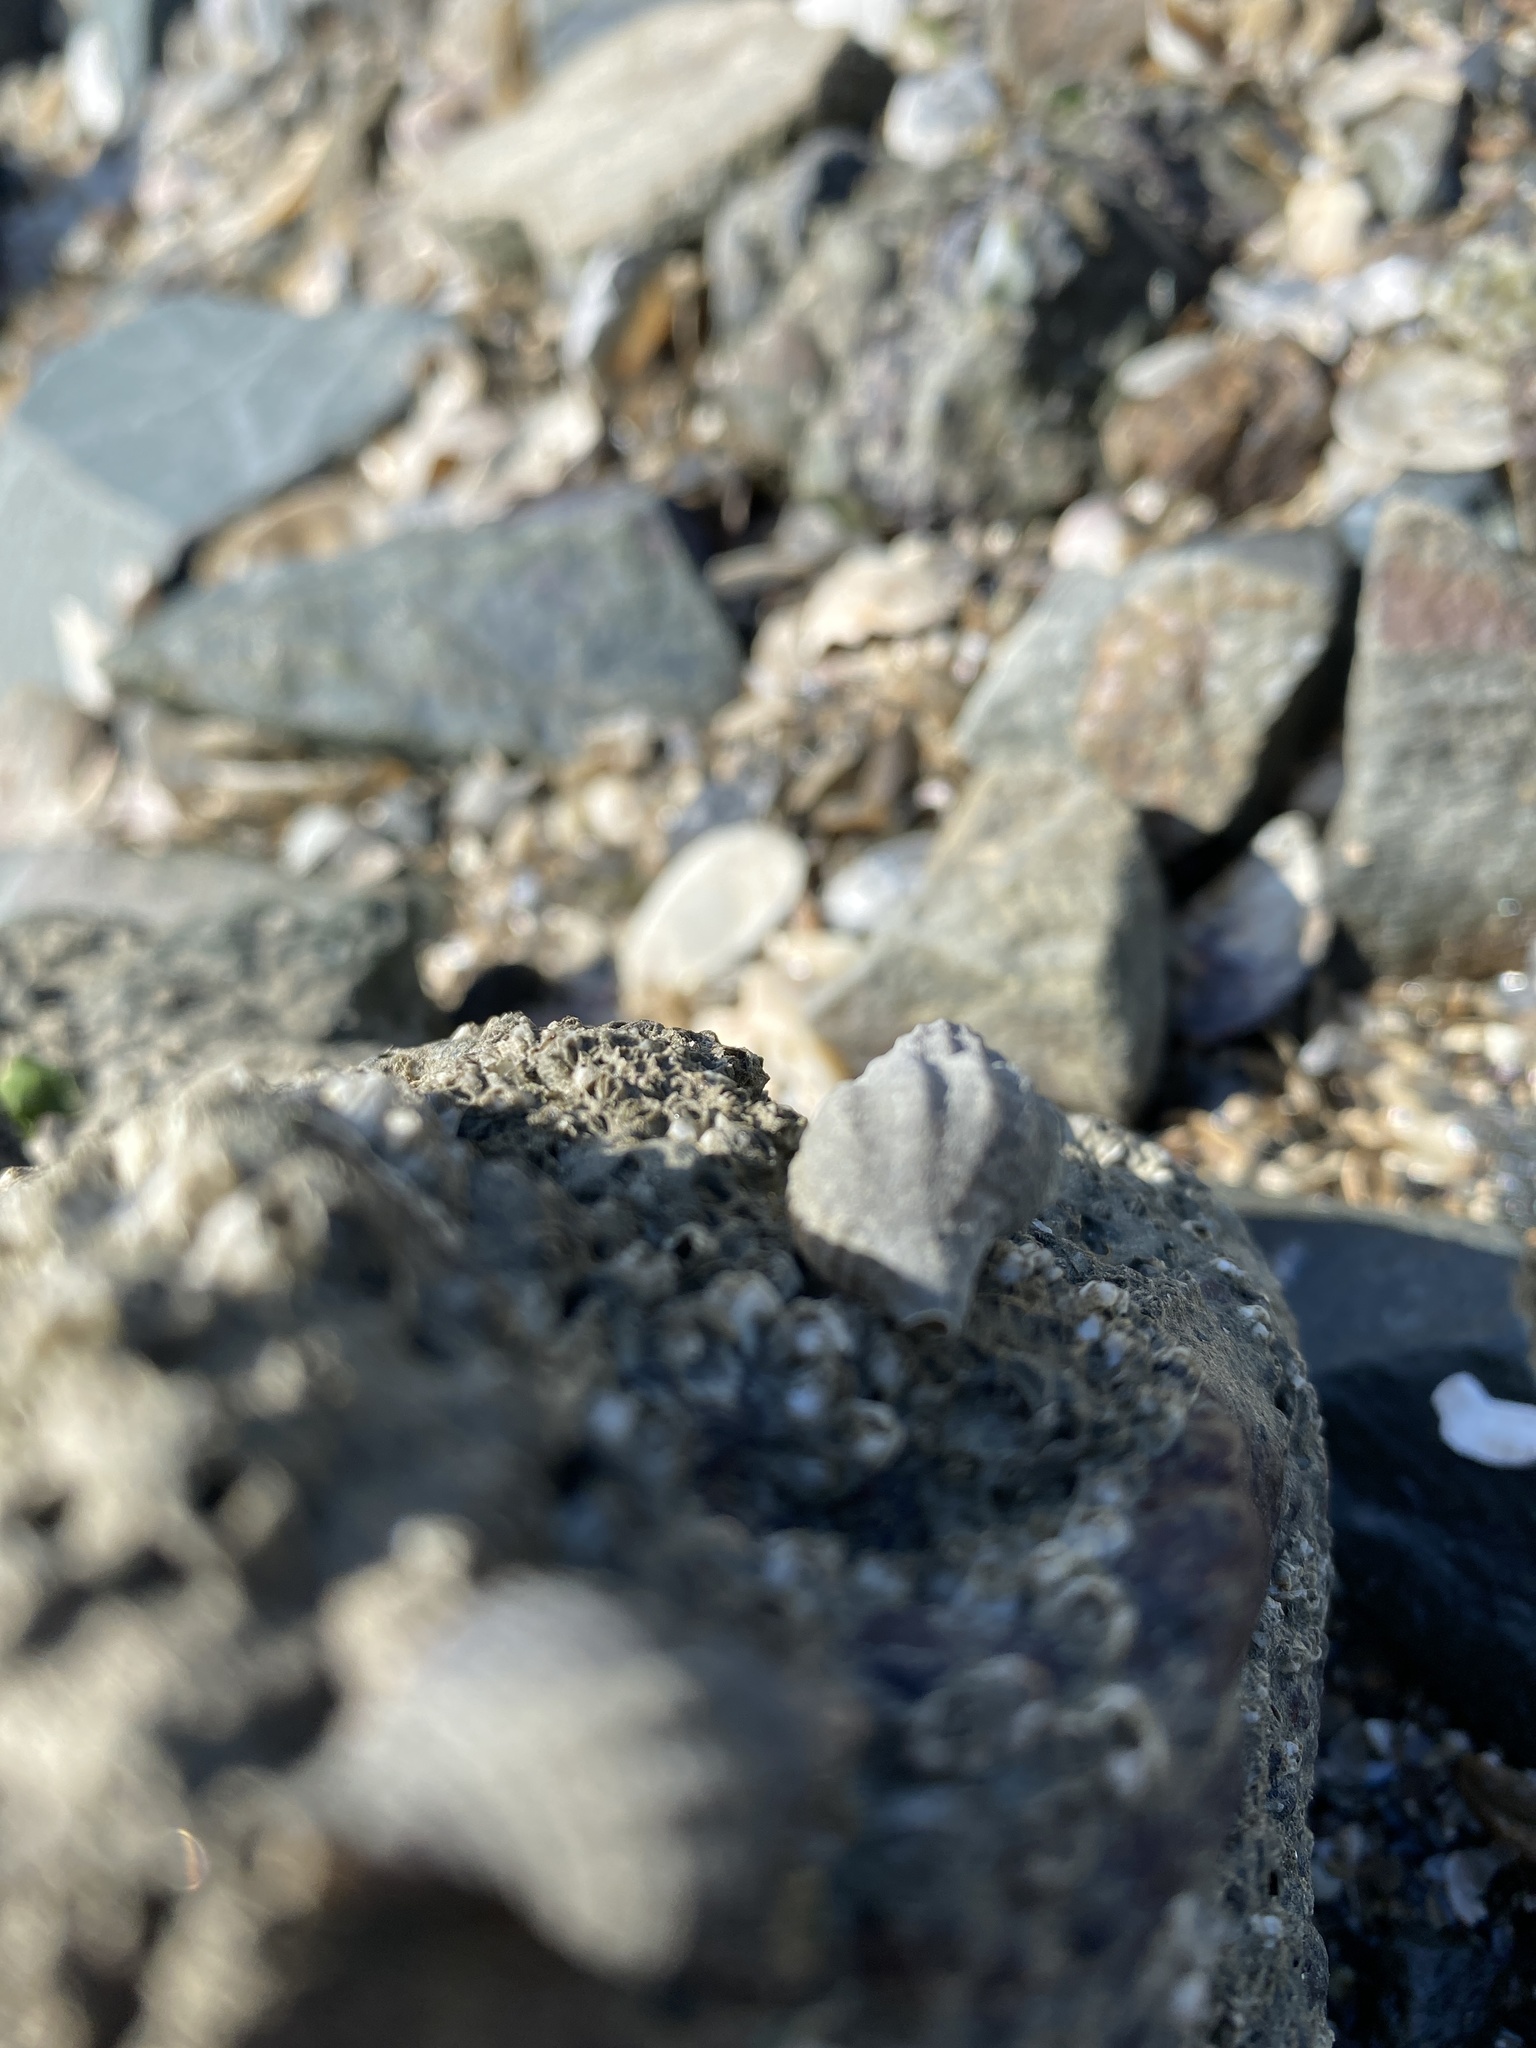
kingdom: Animalia
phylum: Mollusca
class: Gastropoda
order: Neogastropoda
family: Muricidae
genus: Urosalpinx
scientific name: Urosalpinx cinerea
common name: American sting winkle
